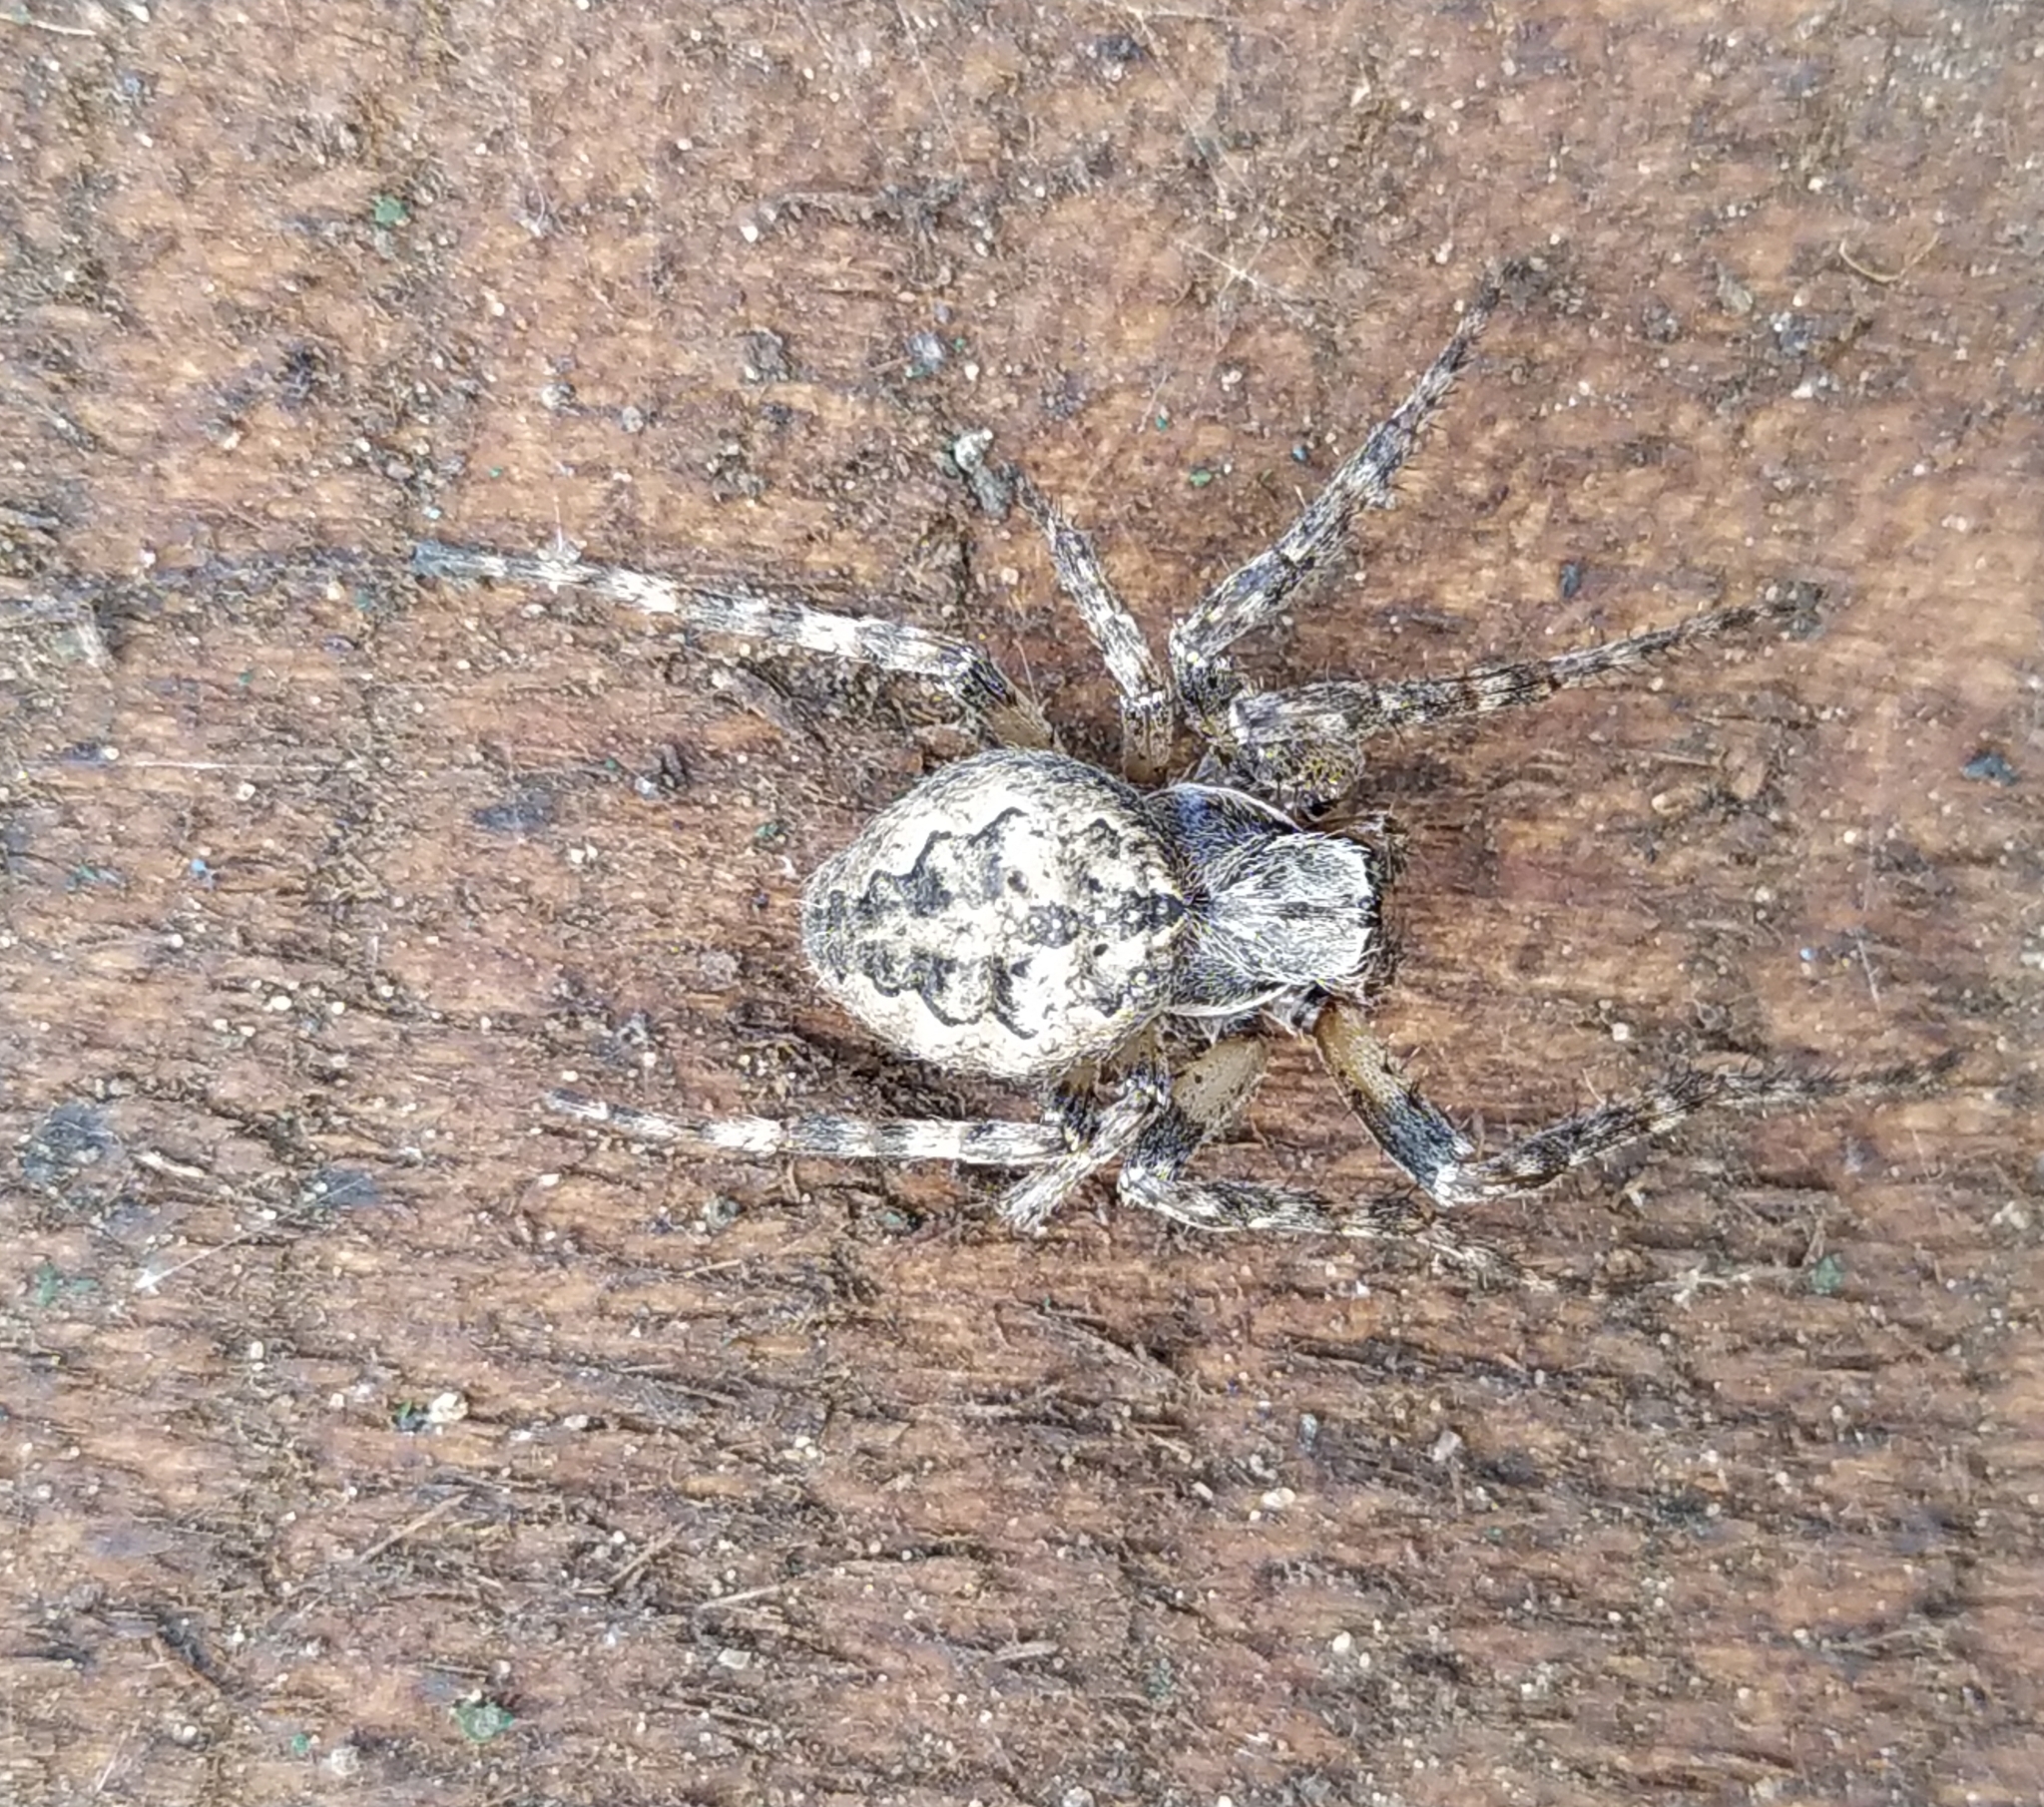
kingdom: Animalia
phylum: Arthropoda
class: Arachnida
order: Araneae
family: Araneidae
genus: Larinioides
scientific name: Larinioides ixobolus
